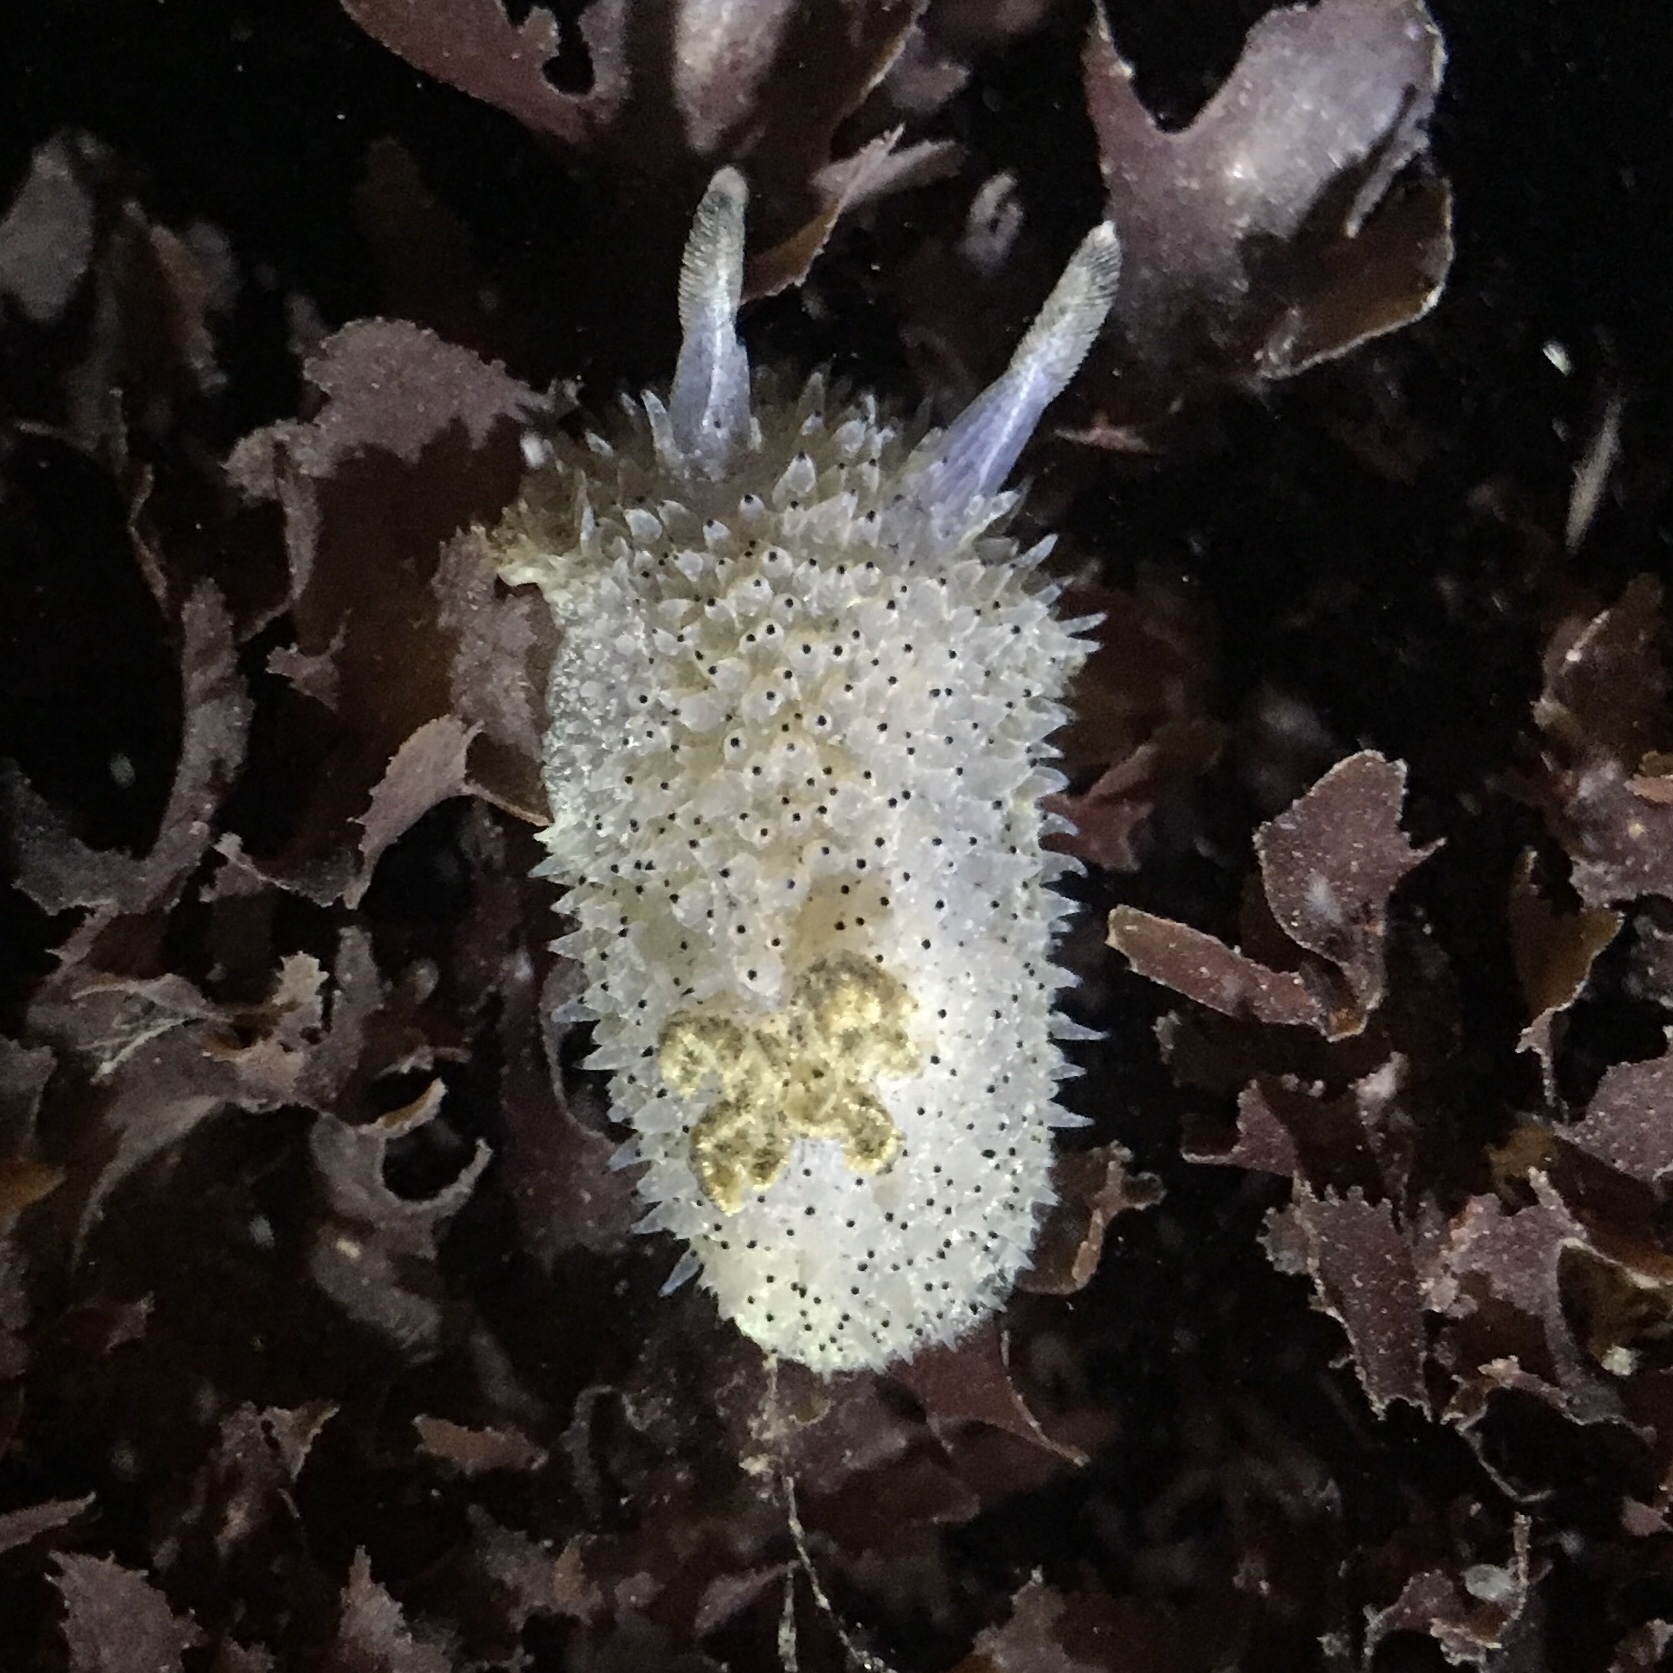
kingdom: Animalia
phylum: Mollusca
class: Gastropoda
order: Nudibranchia
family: Onchidorididae
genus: Acanthodoris
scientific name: Acanthodoris rhodoceras
